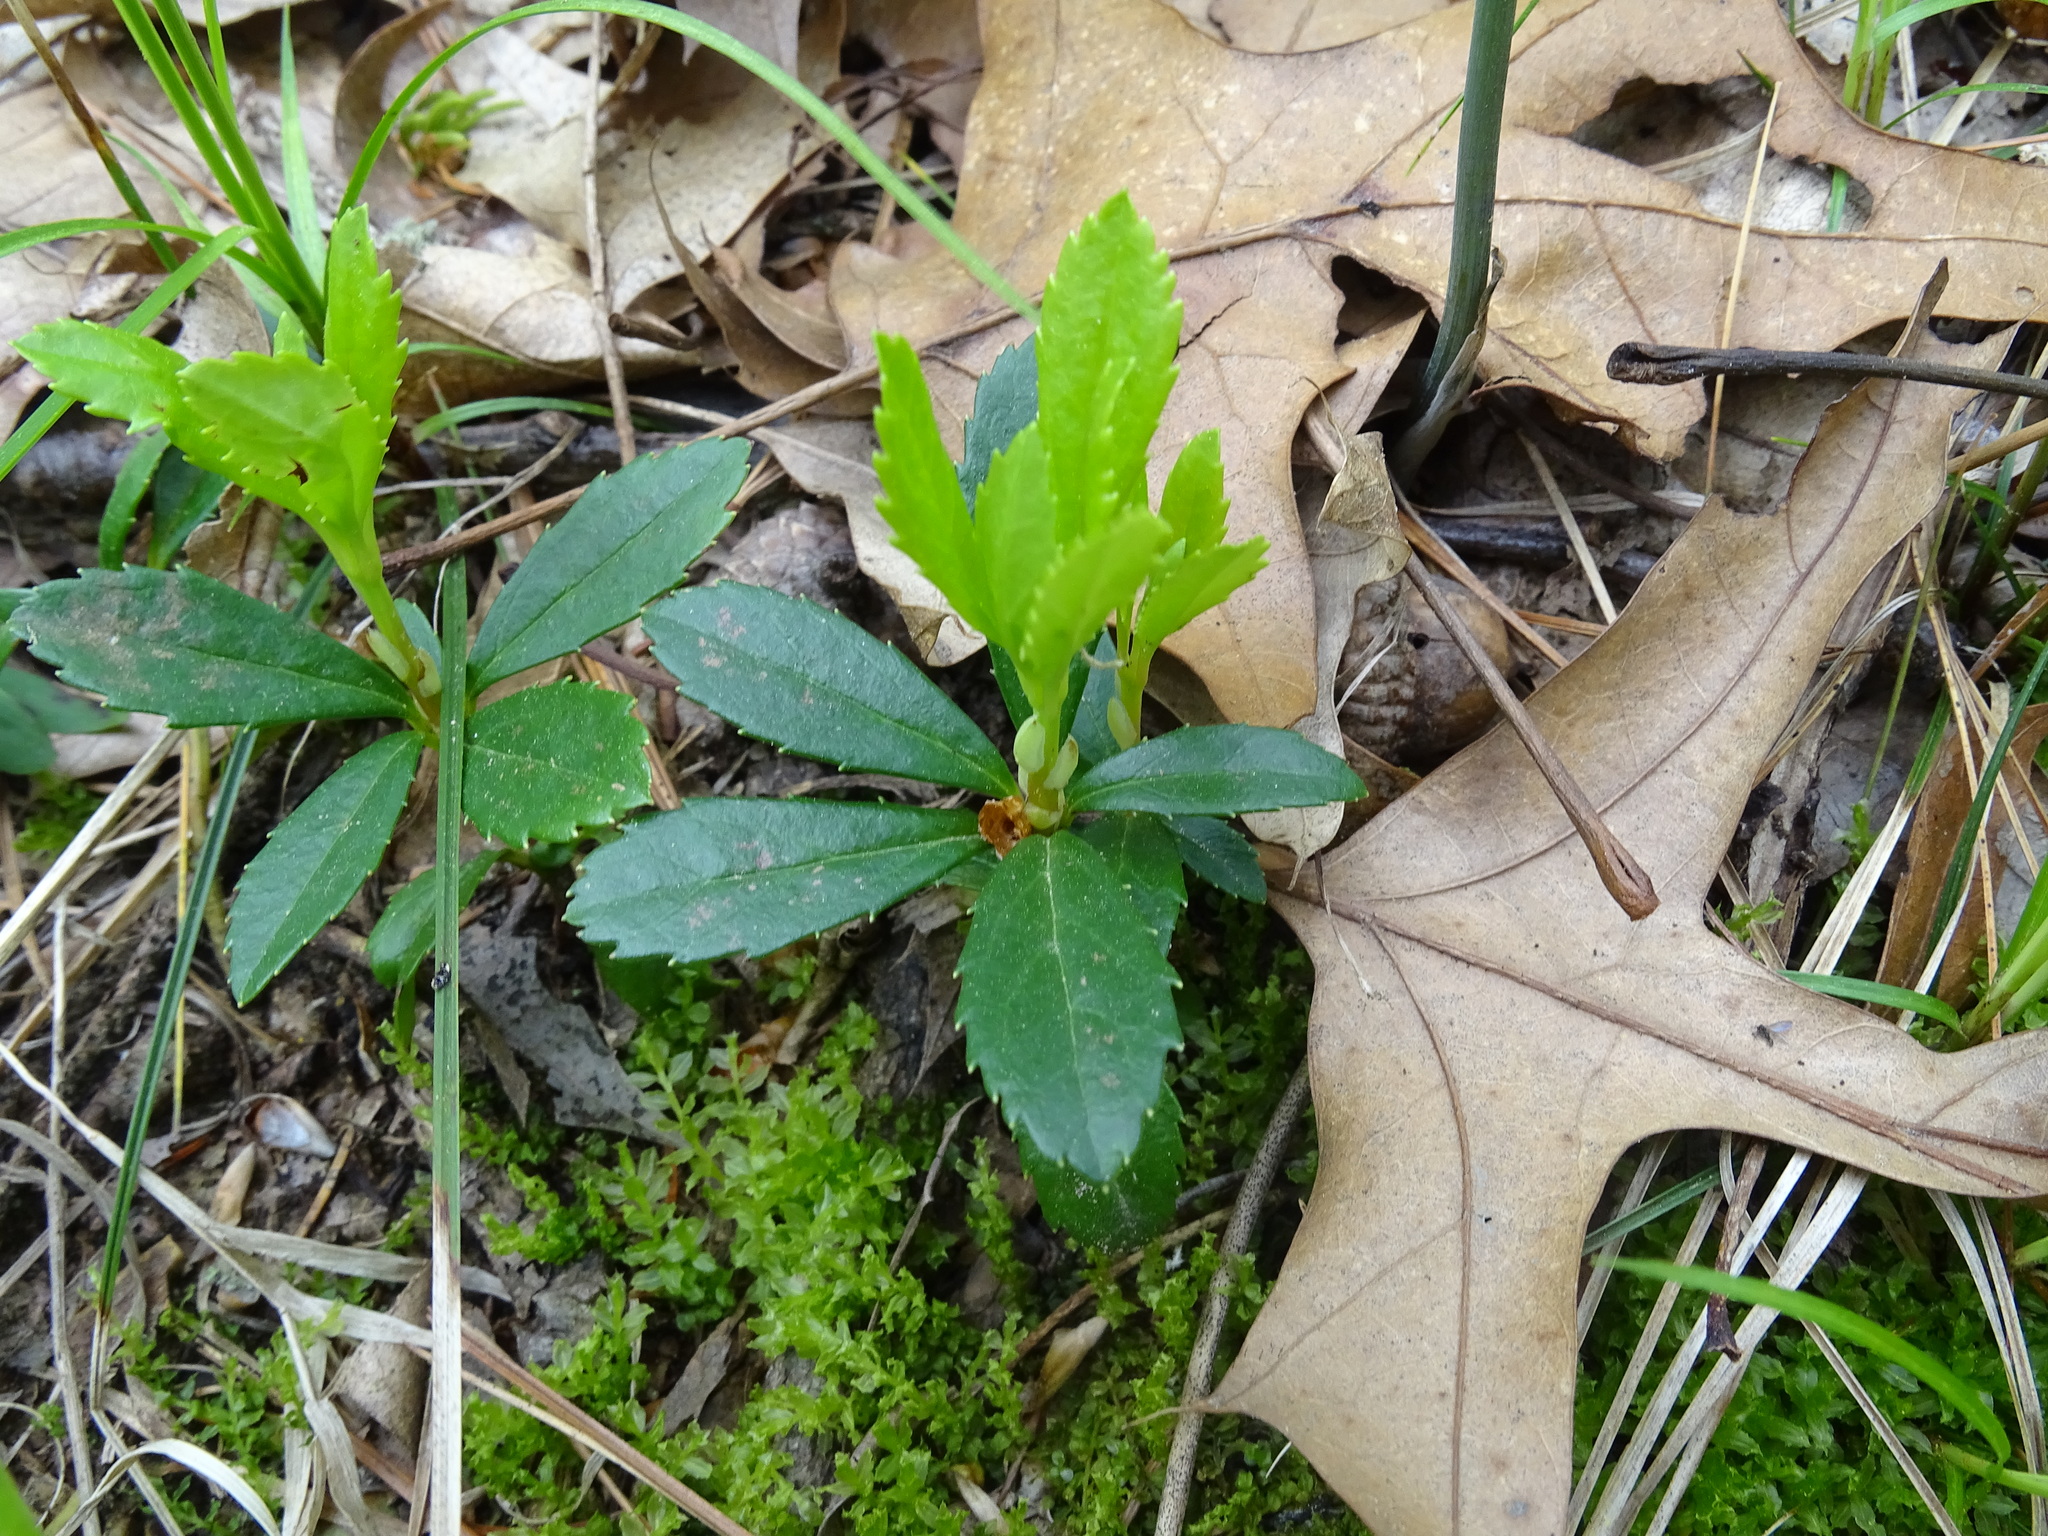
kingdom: Plantae
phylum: Tracheophyta
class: Magnoliopsida
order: Ericales
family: Ericaceae
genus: Chimaphila
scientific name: Chimaphila umbellata
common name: Pipsissewa
